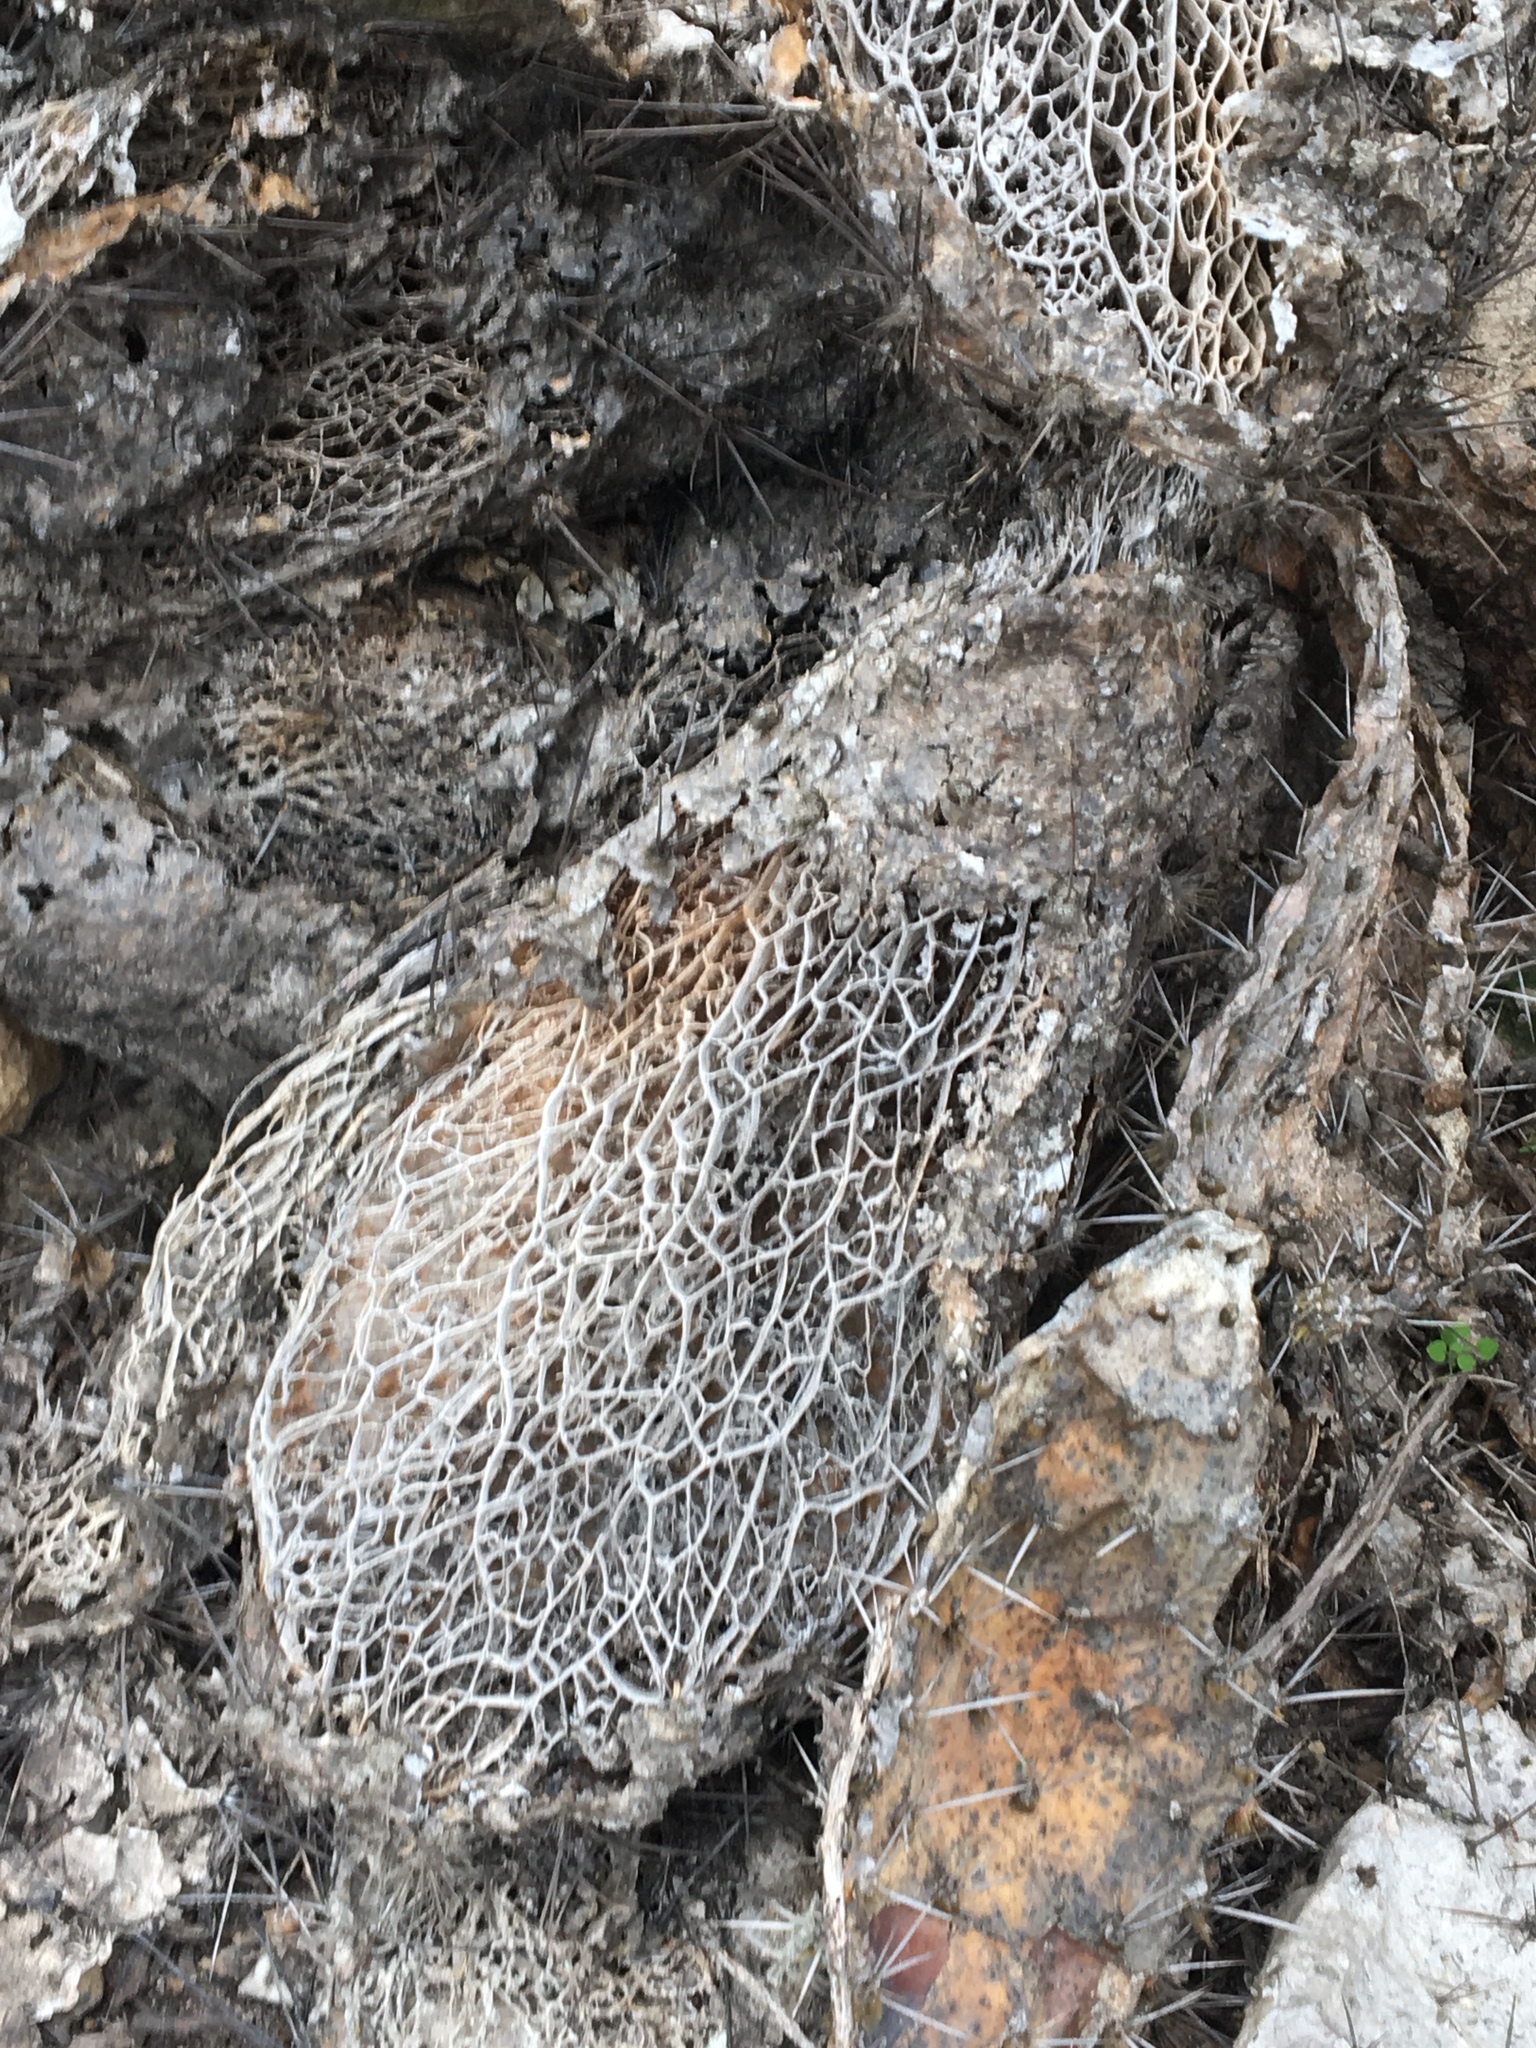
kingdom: Plantae
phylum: Tracheophyta
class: Magnoliopsida
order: Caryophyllales
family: Cactaceae
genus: Opuntia
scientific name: Opuntia littoralis
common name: Coastal prickly-pear
